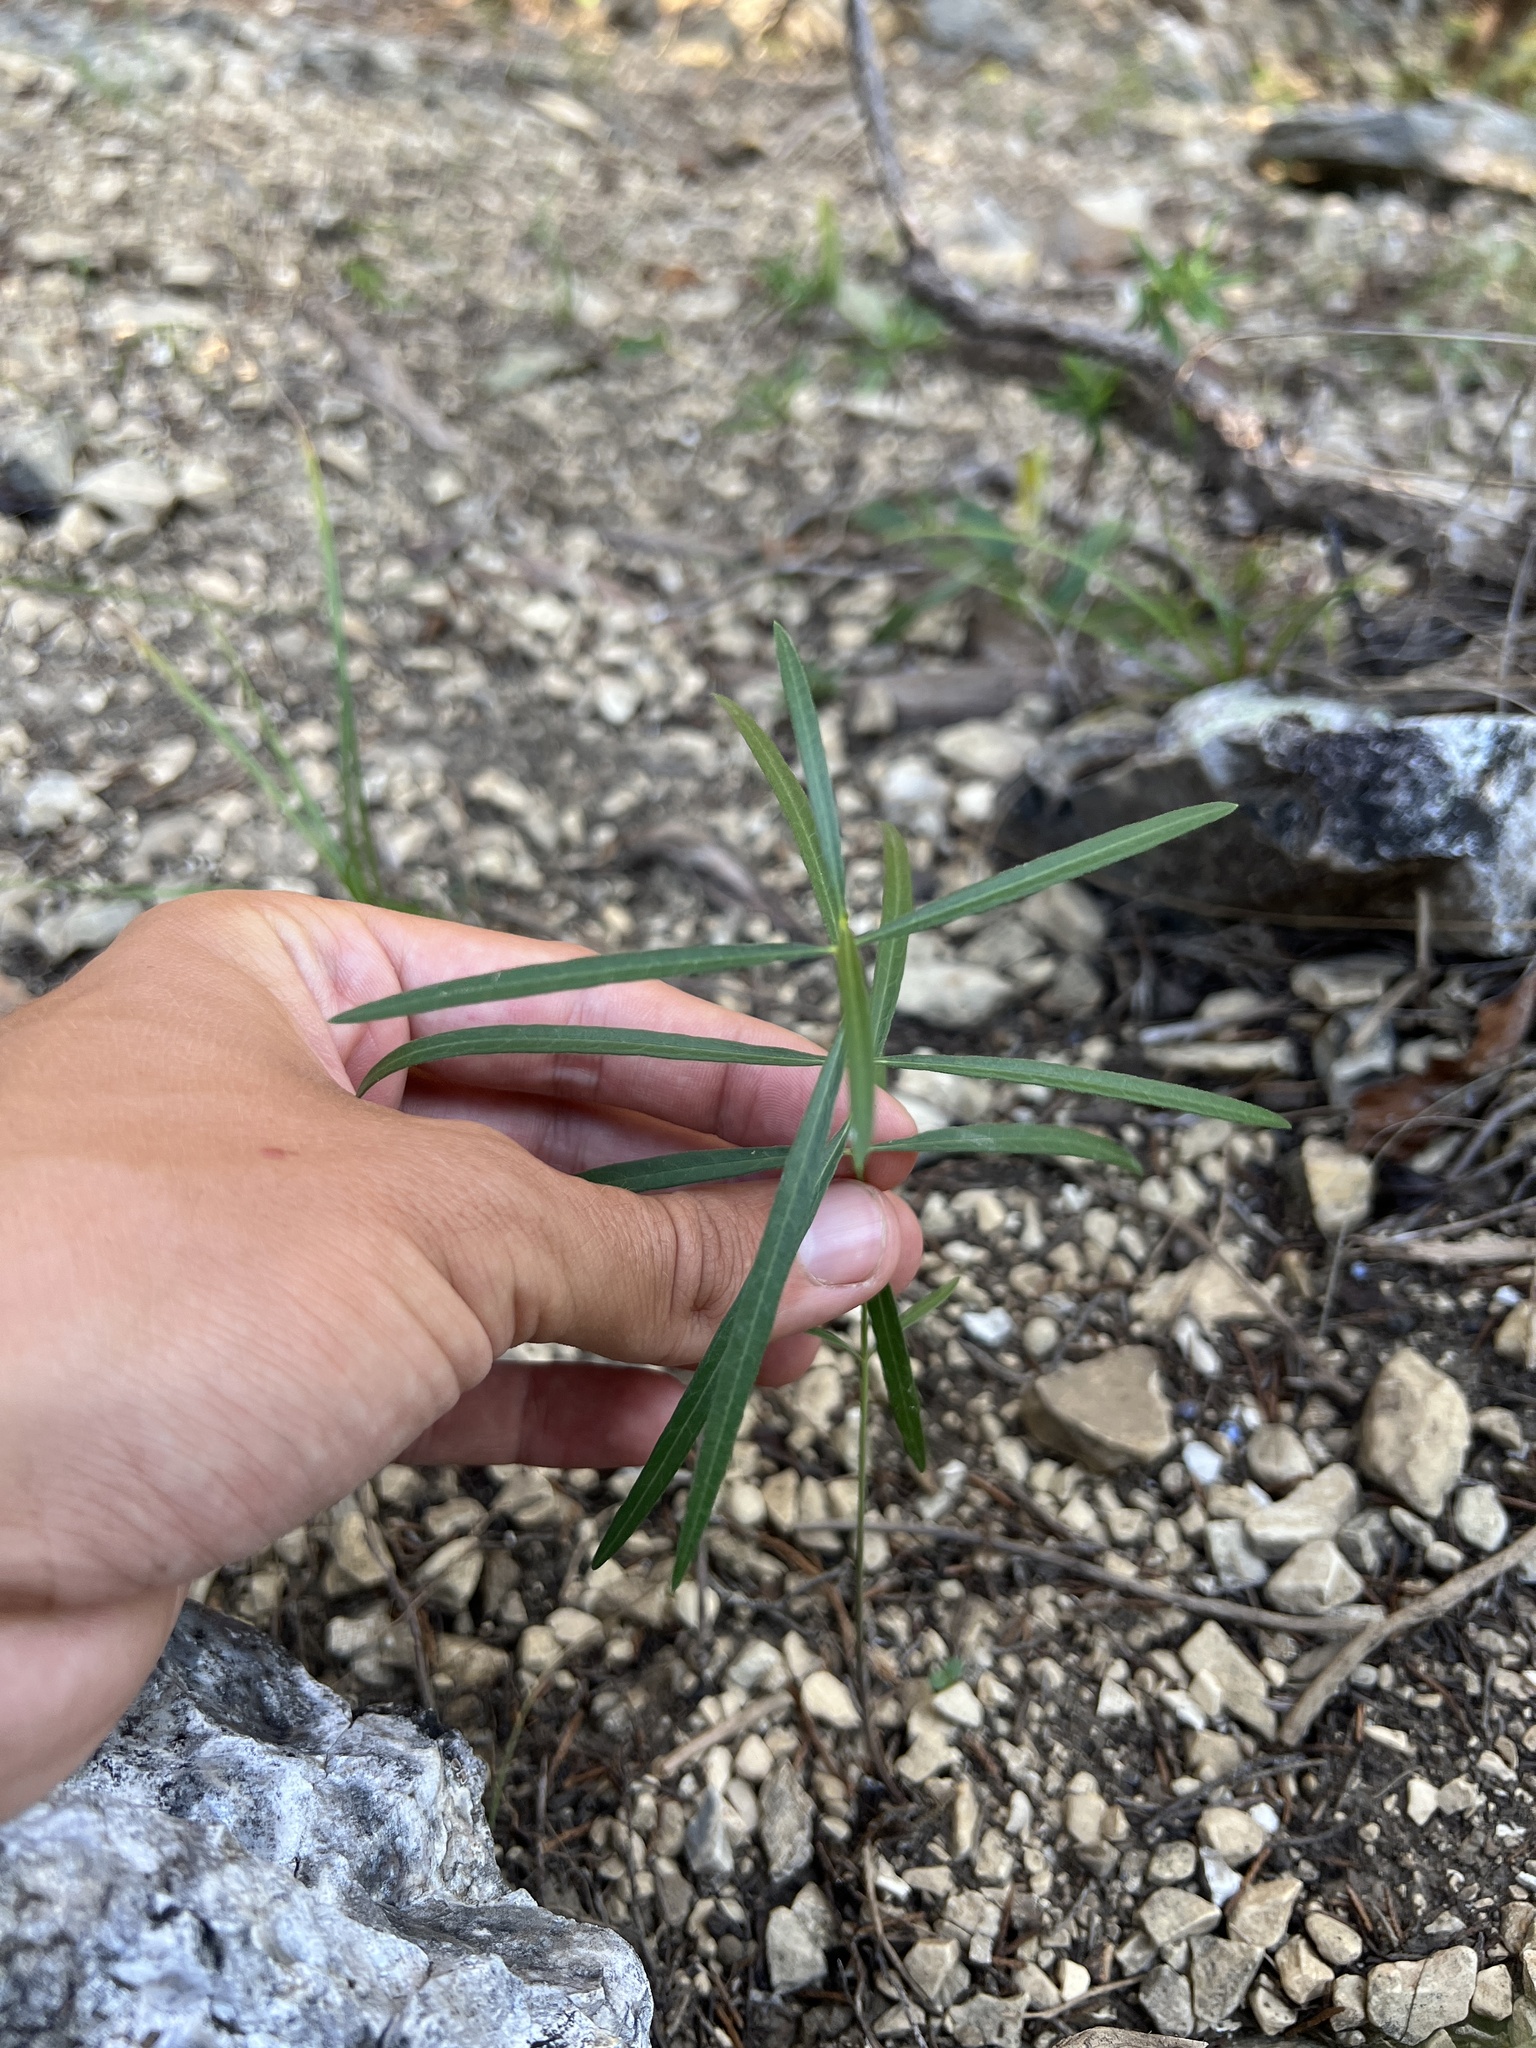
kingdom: Plantae
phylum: Tracheophyta
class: Magnoliopsida
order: Gentianales
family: Apocynaceae
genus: Asclepias
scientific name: Asclepias stenophylla
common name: Narrow-leaf milkweed
